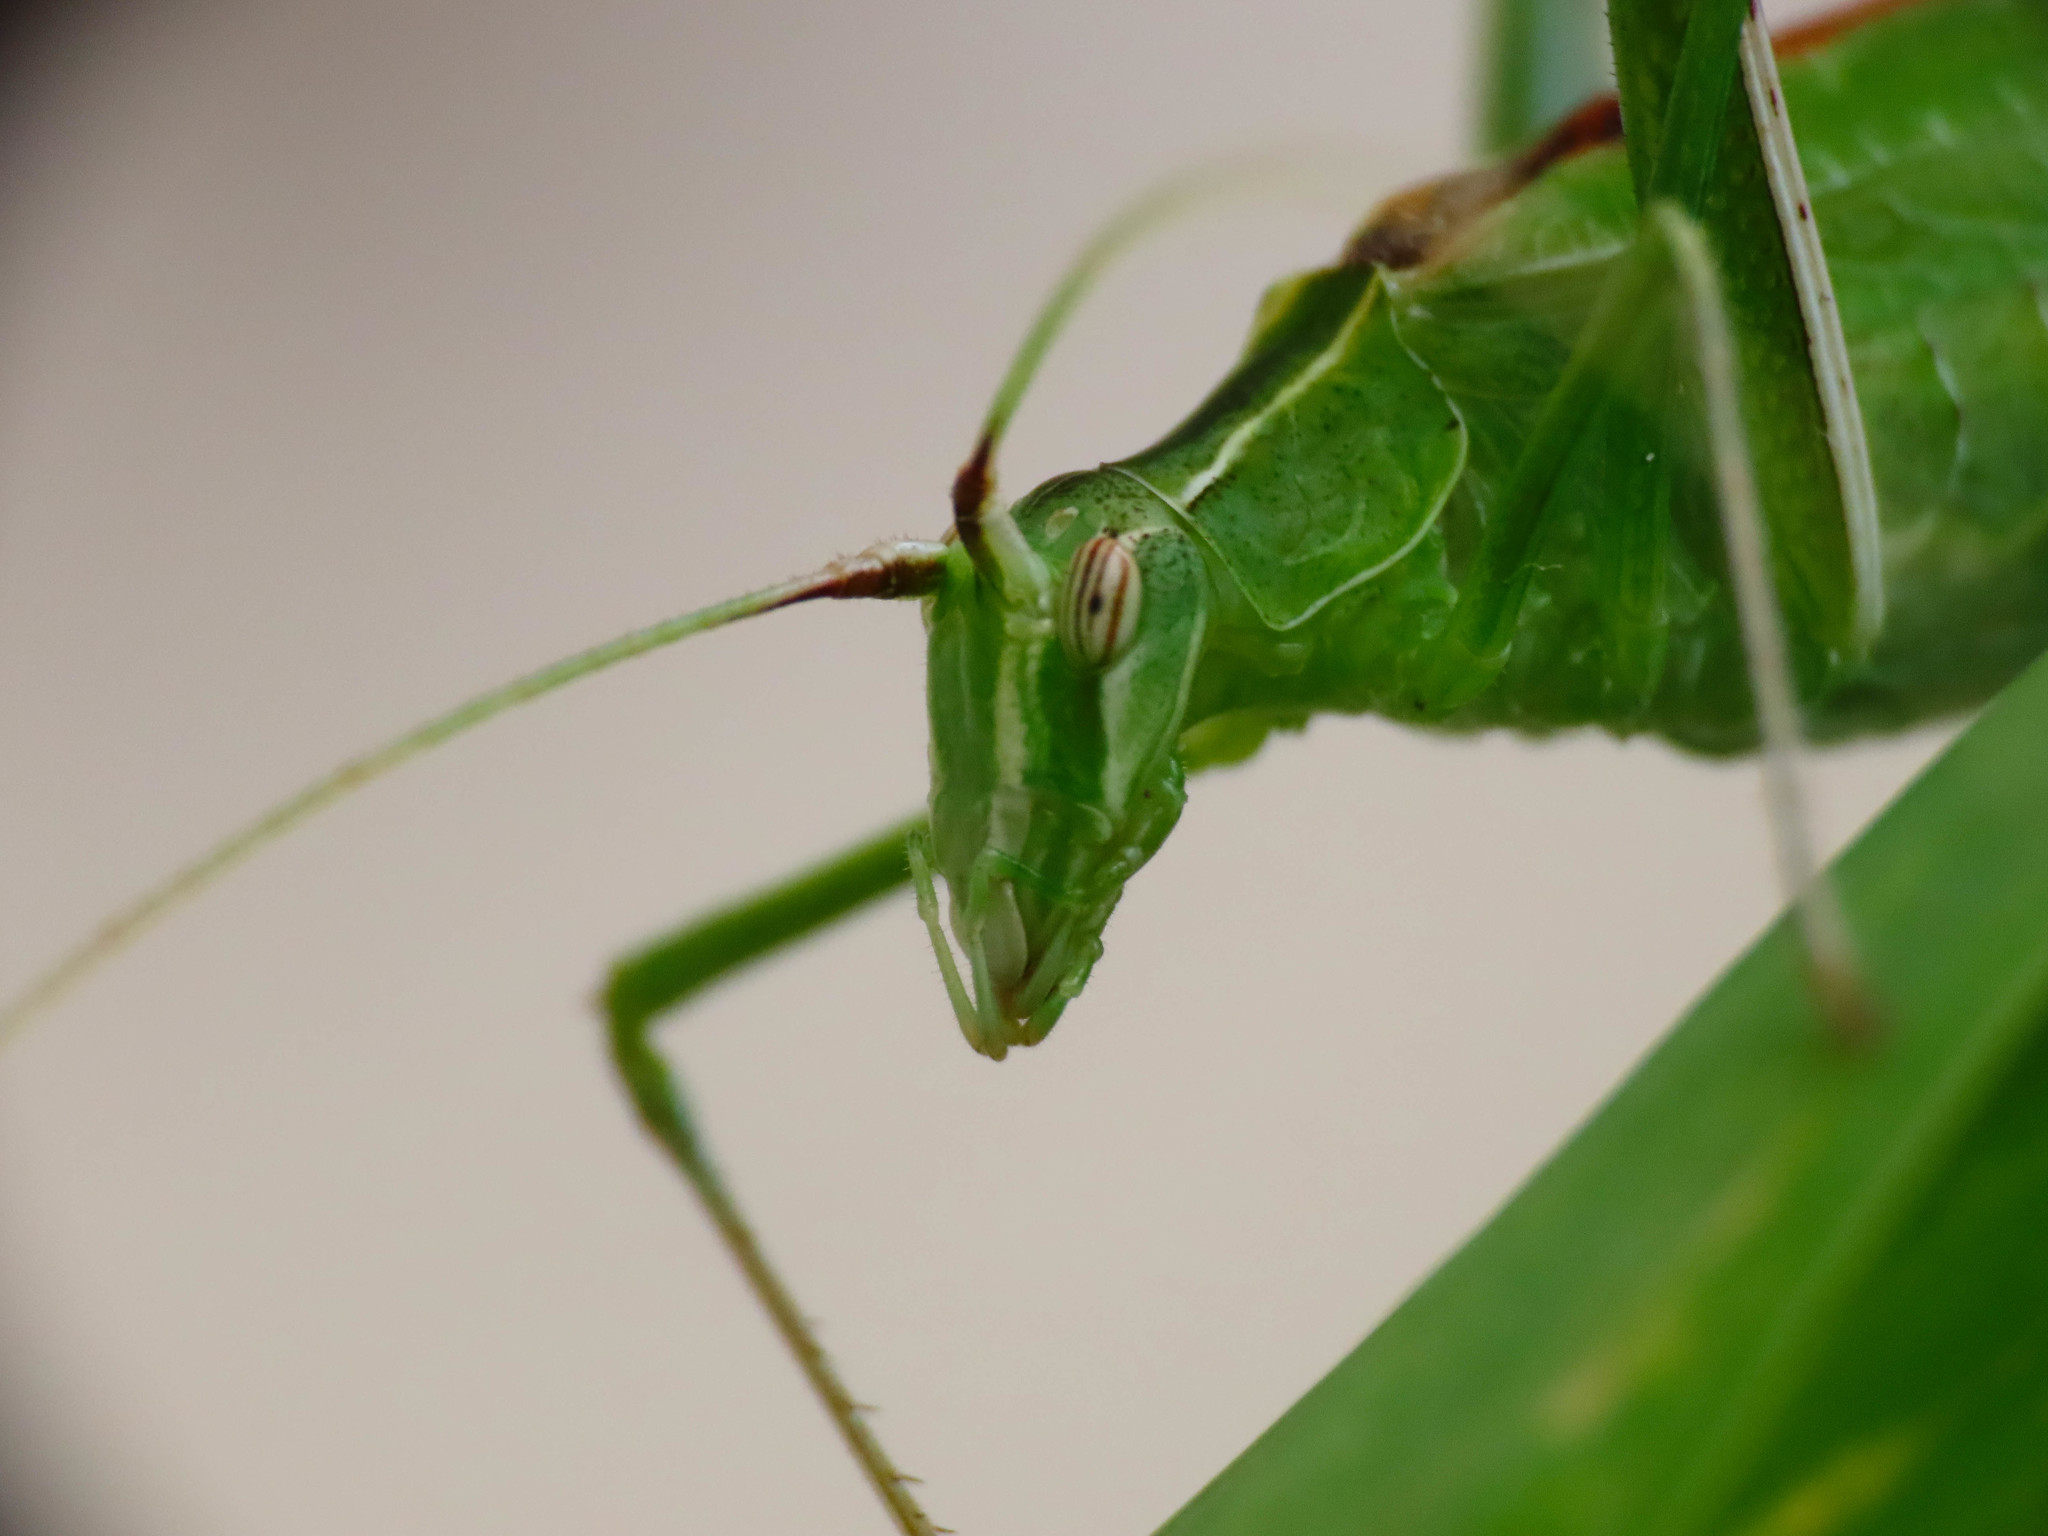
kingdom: Animalia
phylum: Arthropoda
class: Insecta
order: Orthoptera
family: Tettigoniidae
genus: Tylopsis
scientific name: Tylopsis lilifolia
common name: Lily bush-cricket
